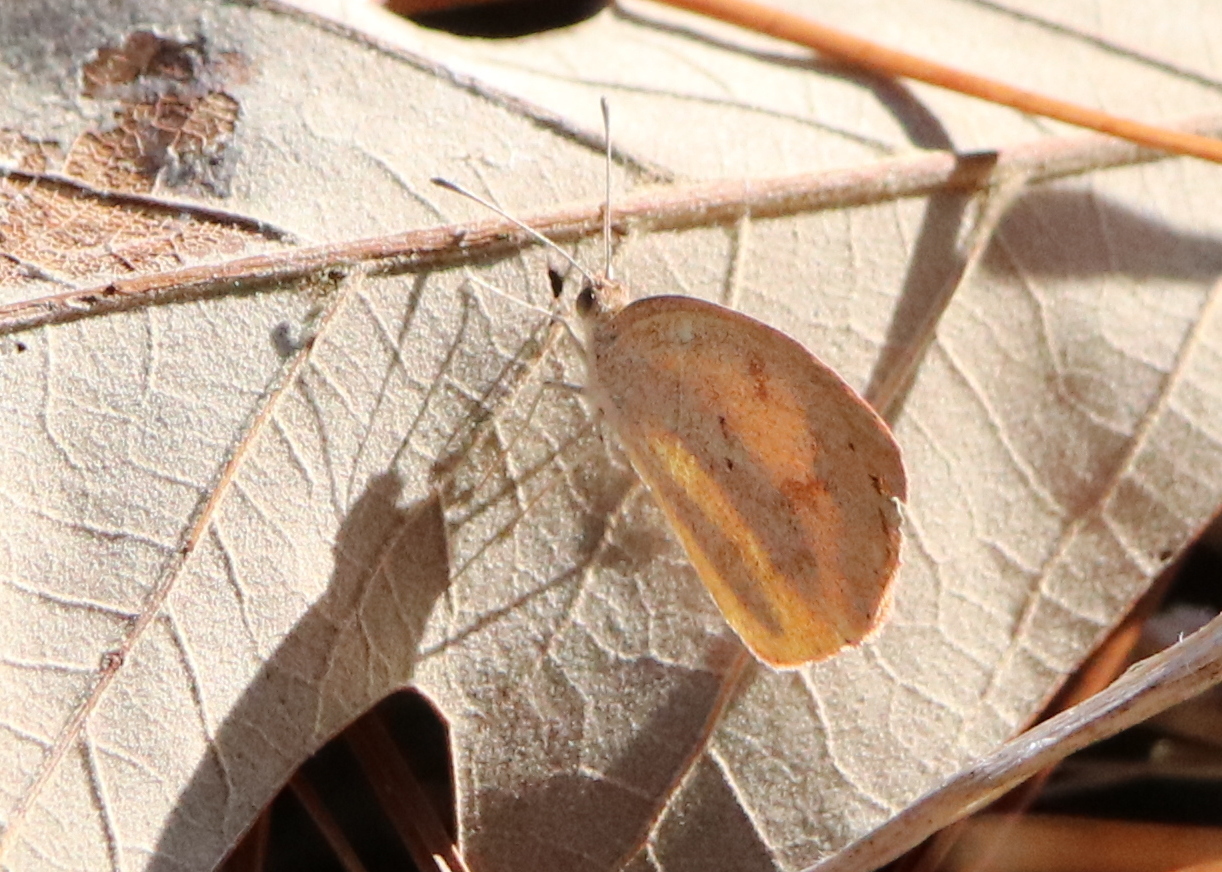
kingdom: Animalia
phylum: Arthropoda
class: Insecta
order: Lepidoptera
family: Pieridae
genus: Eurema
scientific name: Eurema daira
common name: Barred sulphur
